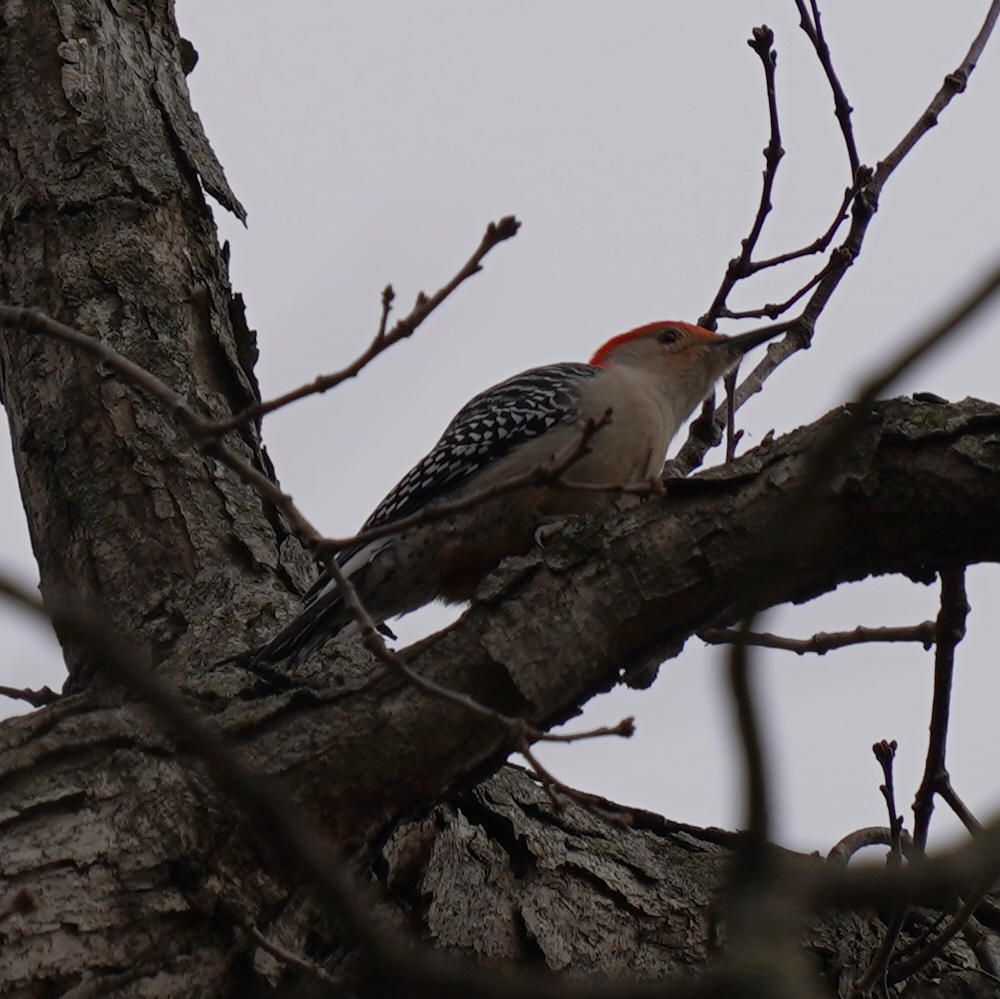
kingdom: Animalia
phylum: Chordata
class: Aves
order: Piciformes
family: Picidae
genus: Melanerpes
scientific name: Melanerpes carolinus
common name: Red-bellied woodpecker
